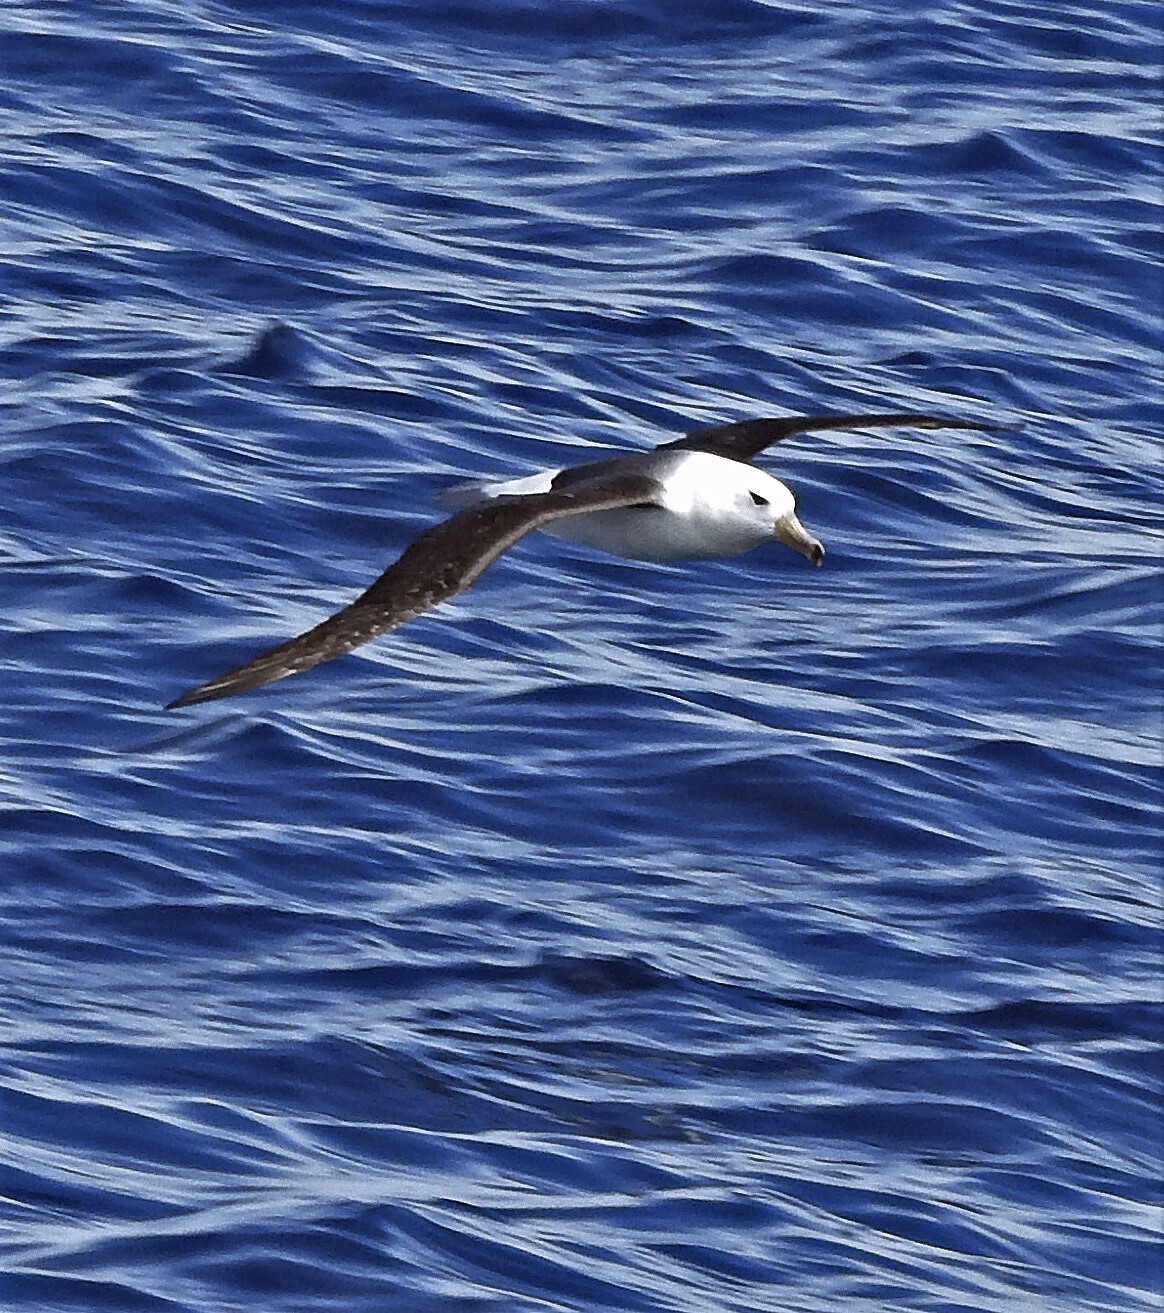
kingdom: Animalia
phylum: Chordata
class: Aves
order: Procellariiformes
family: Diomedeidae
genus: Thalassarche
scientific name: Thalassarche melanophris
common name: Black-browed albatross
